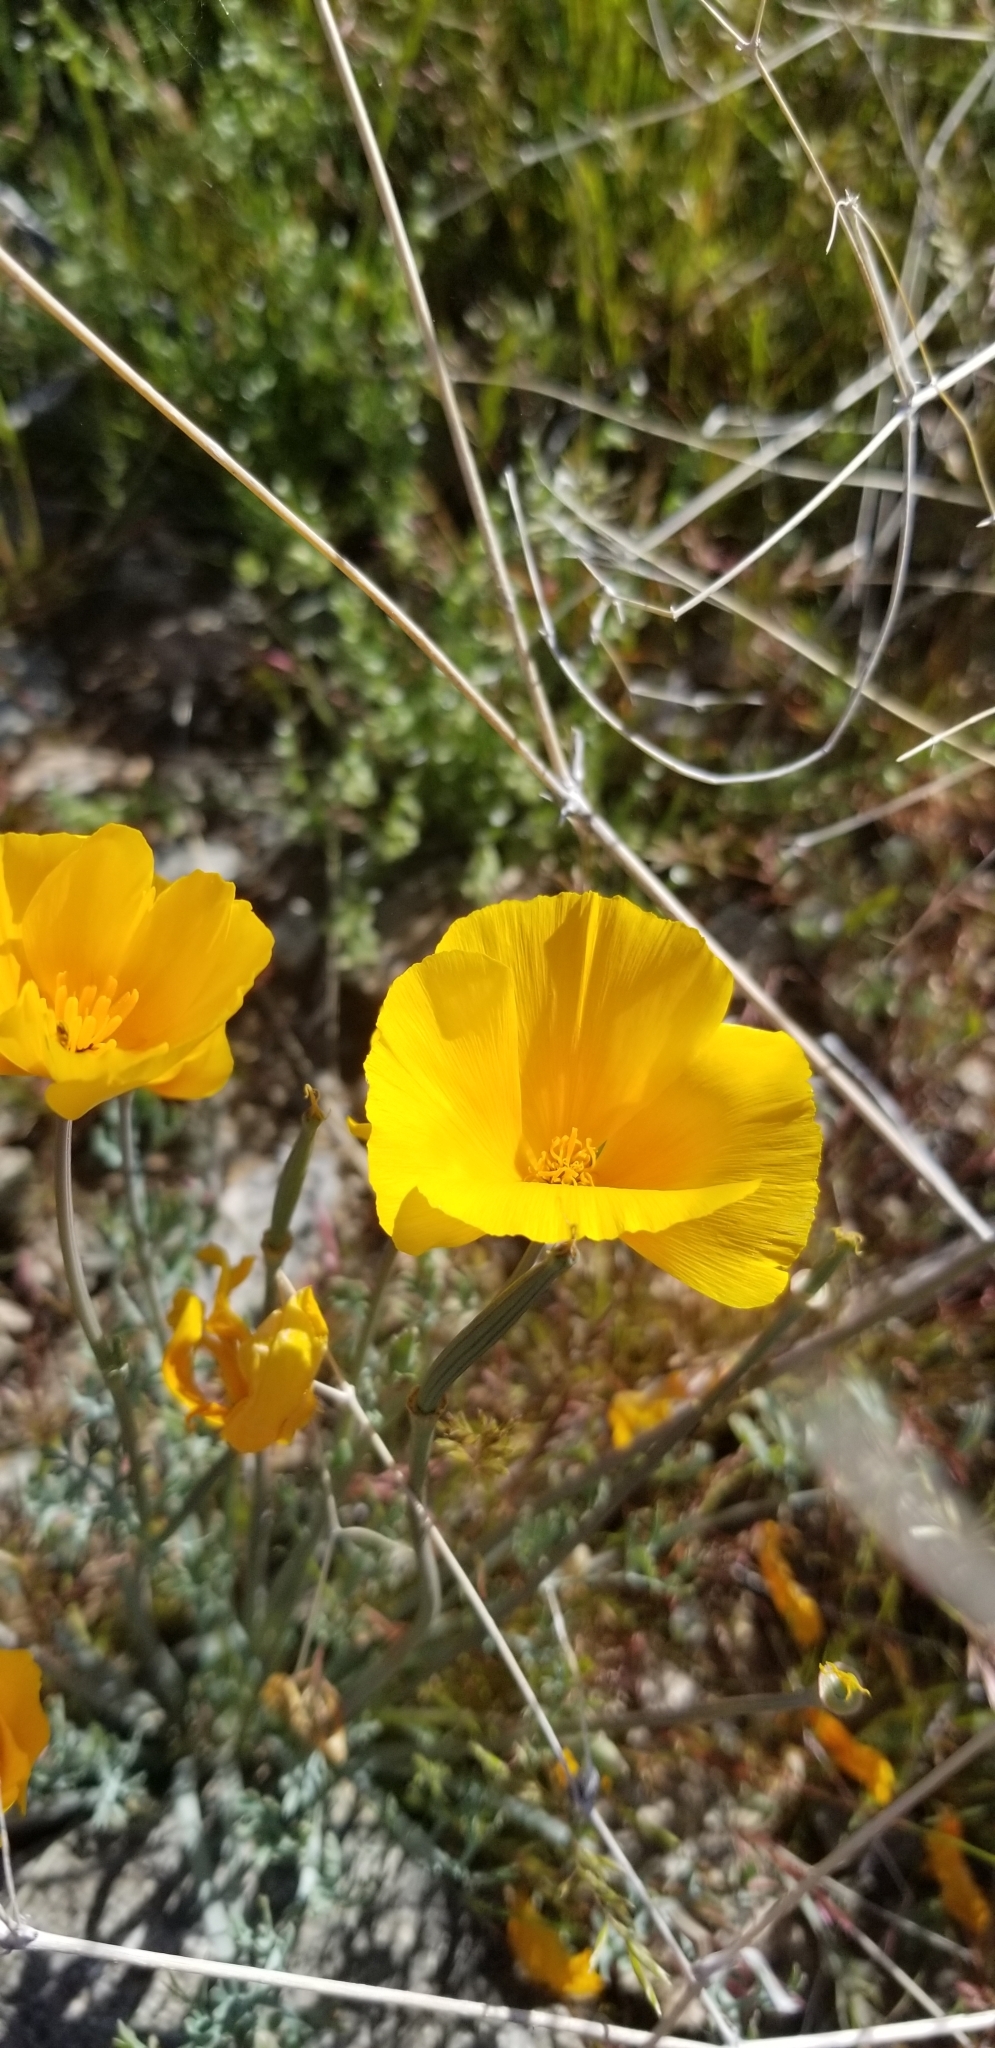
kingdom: Plantae
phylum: Tracheophyta
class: Magnoliopsida
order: Ranunculales
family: Papaveraceae
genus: Eschscholzia
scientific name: Eschscholzia californica
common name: California poppy
